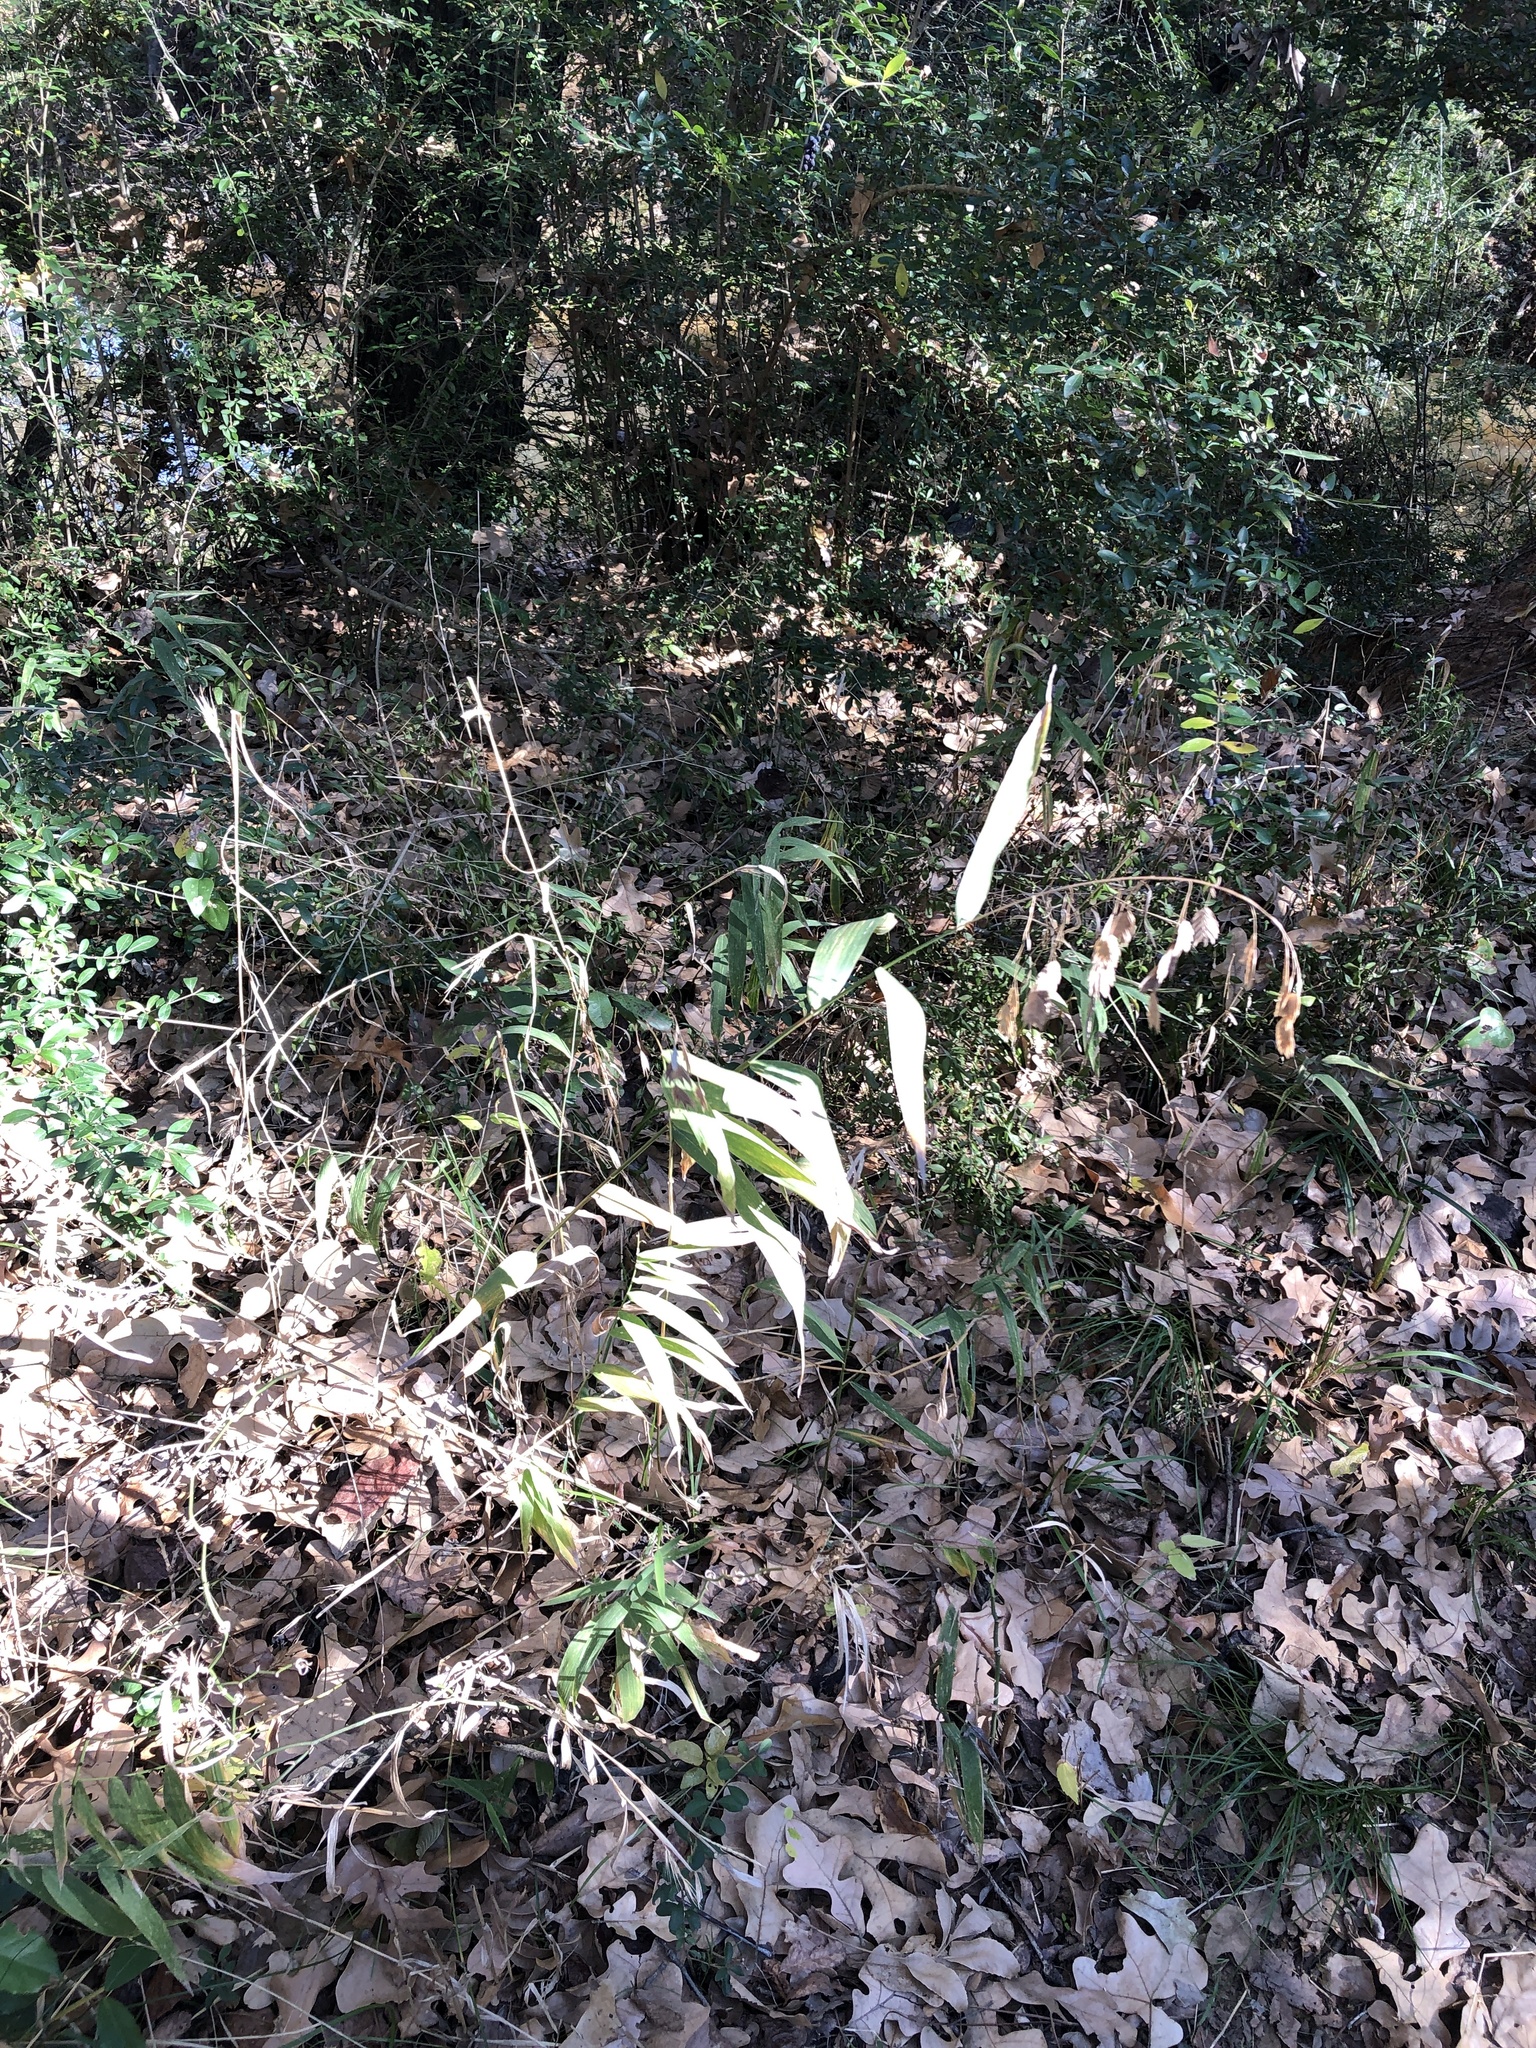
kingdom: Plantae
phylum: Tracheophyta
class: Liliopsida
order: Poales
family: Poaceae
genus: Chasmanthium
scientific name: Chasmanthium latifolium
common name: Broad-leaved chasmanthium
